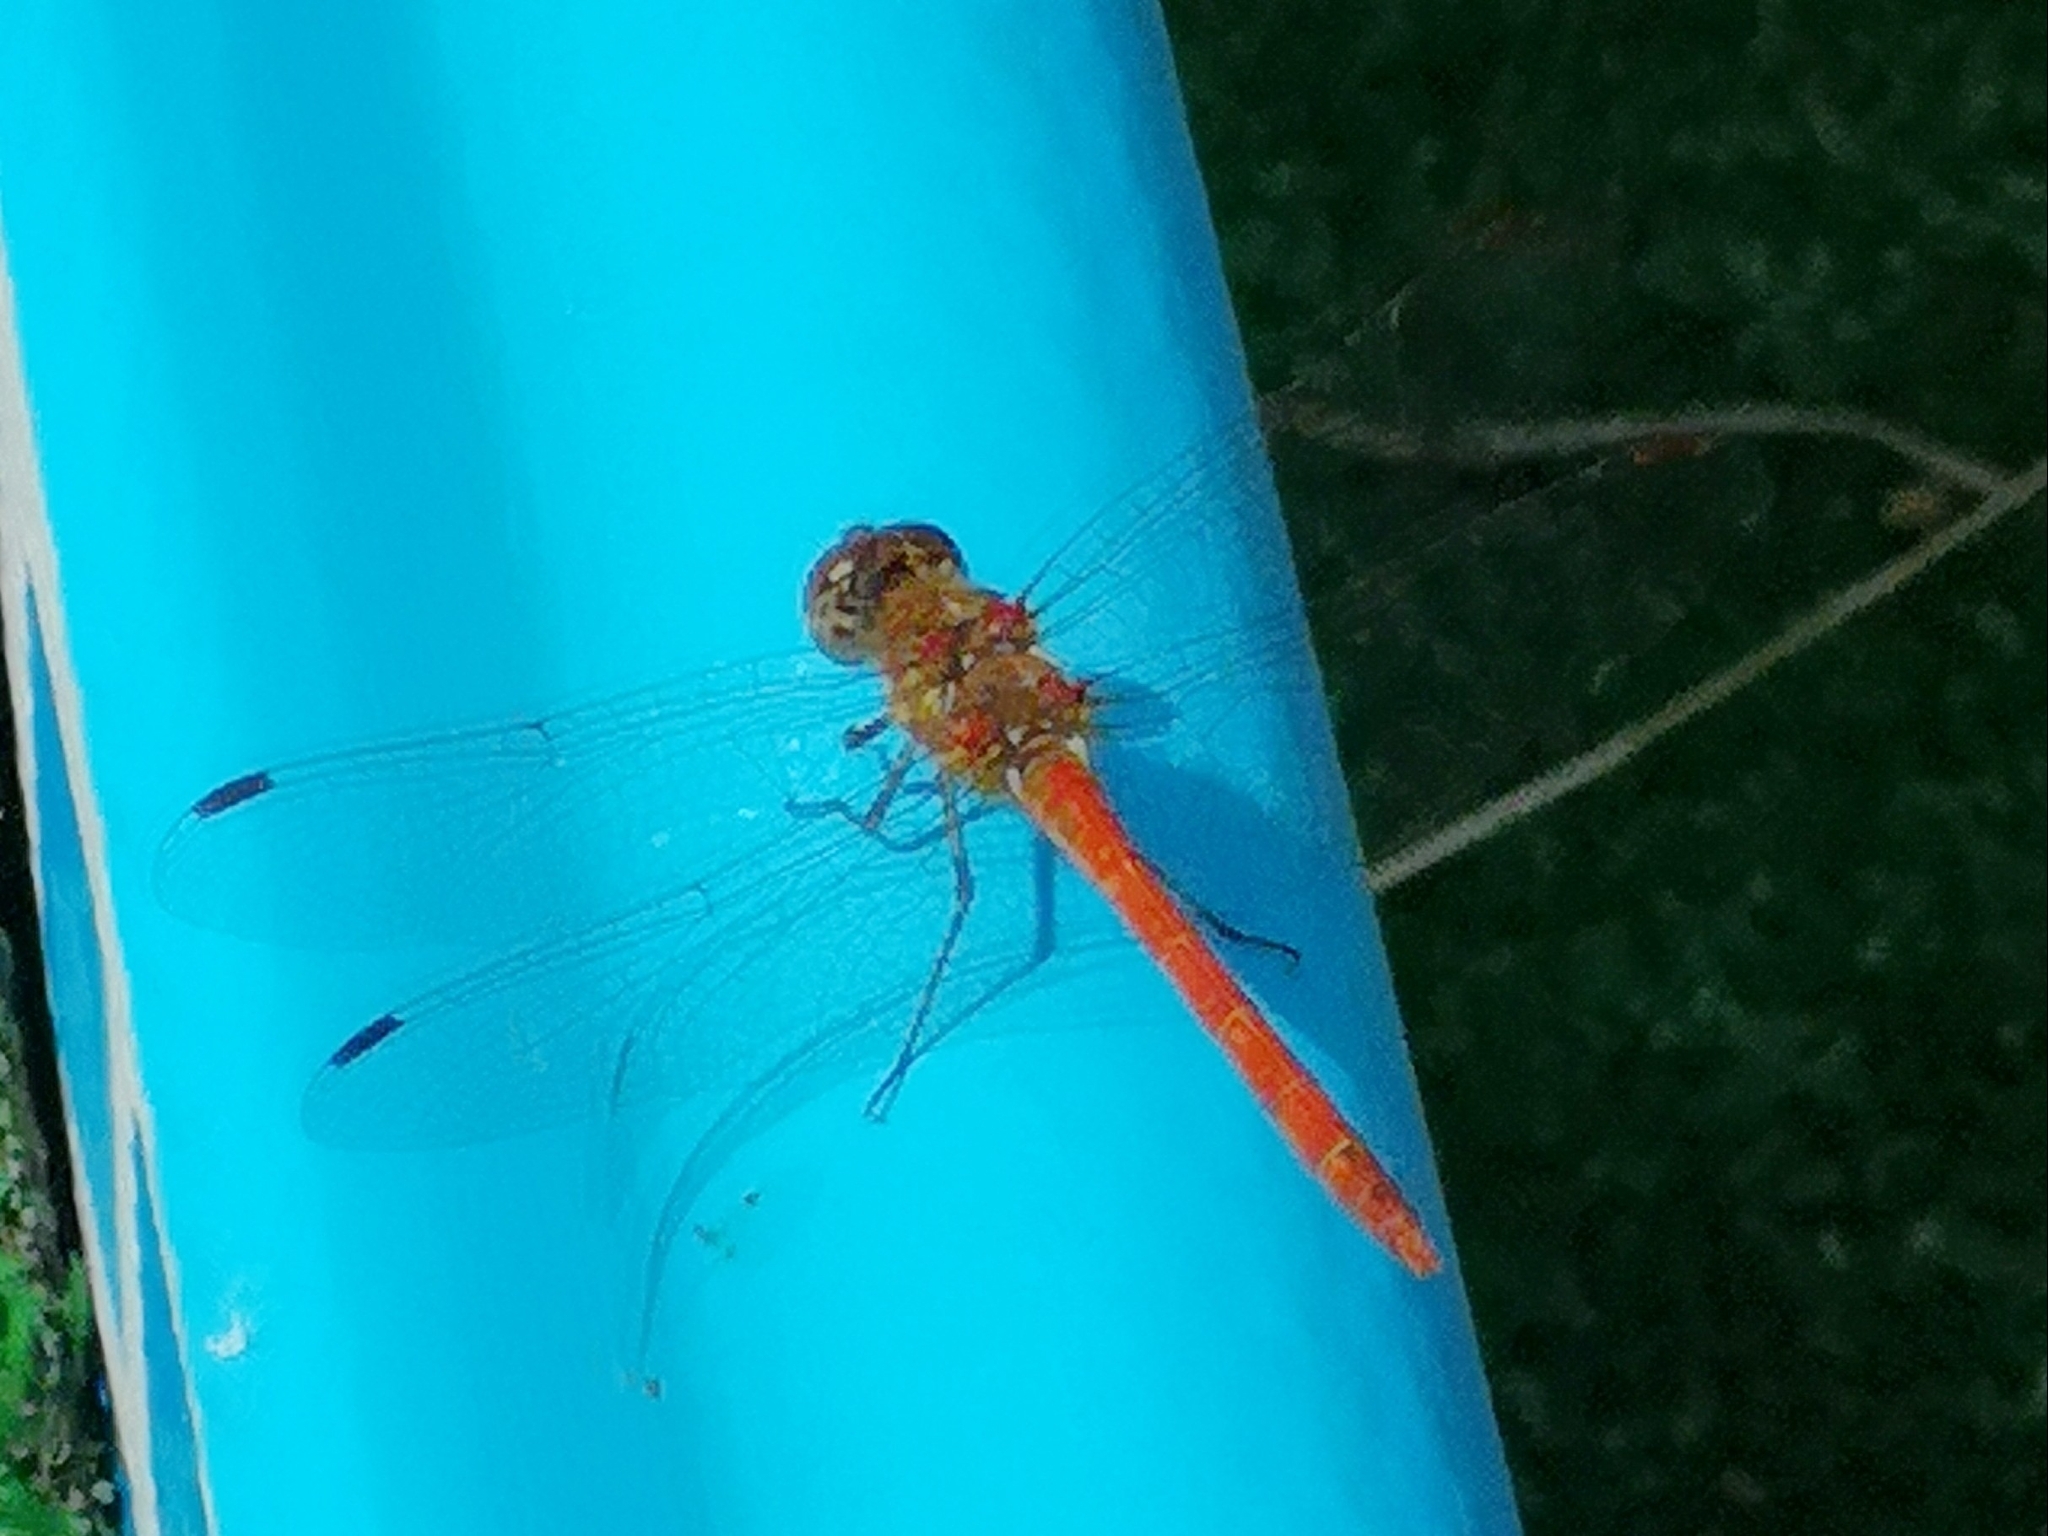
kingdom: Animalia
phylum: Arthropoda
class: Insecta
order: Odonata
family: Libellulidae
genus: Sympetrum
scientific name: Sympetrum striolatum
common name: Common darter
